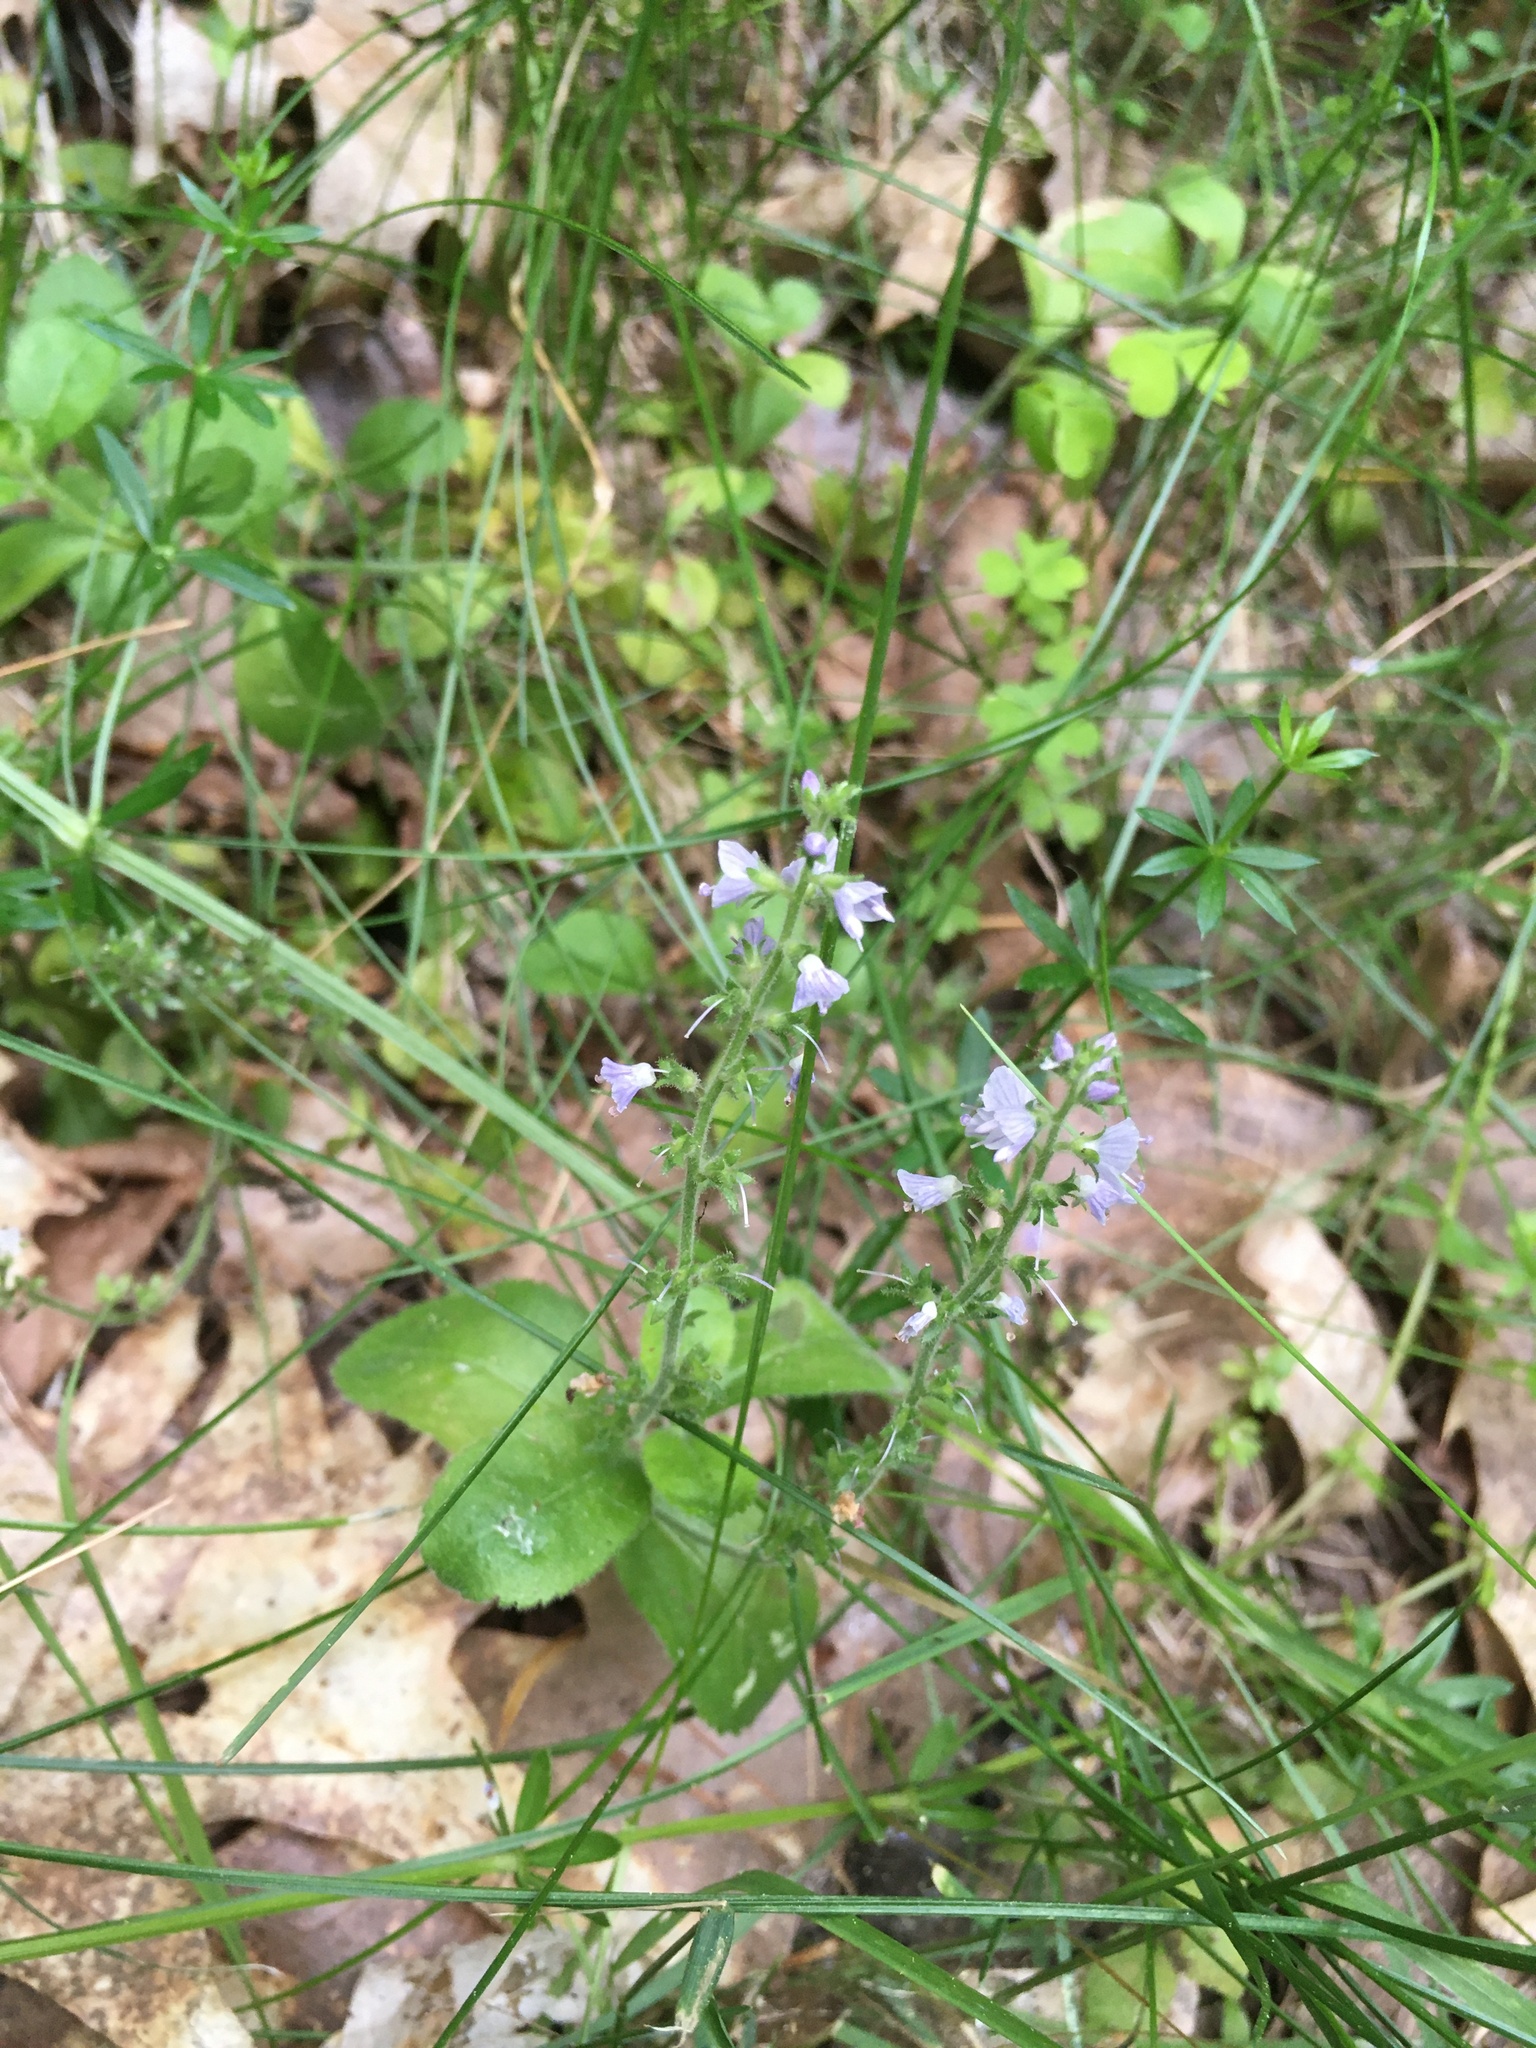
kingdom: Plantae
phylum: Tracheophyta
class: Magnoliopsida
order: Lamiales
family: Plantaginaceae
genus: Veronica
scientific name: Veronica officinalis
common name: Common speedwell
